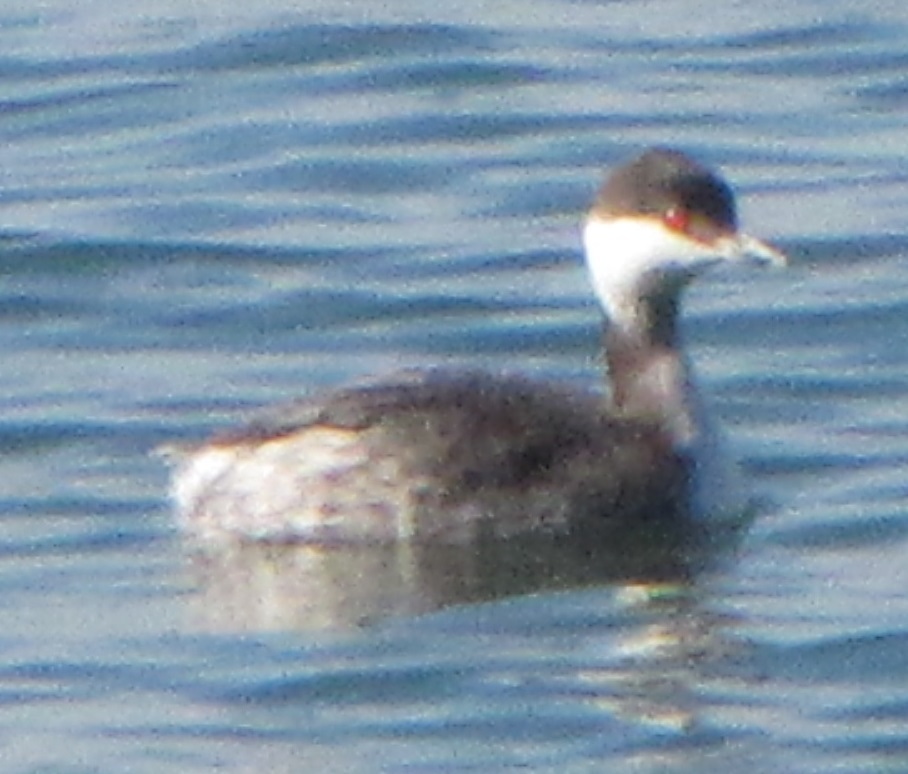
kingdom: Animalia
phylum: Chordata
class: Aves
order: Podicipediformes
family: Podicipedidae
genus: Podiceps
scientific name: Podiceps auritus
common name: Horned grebe
